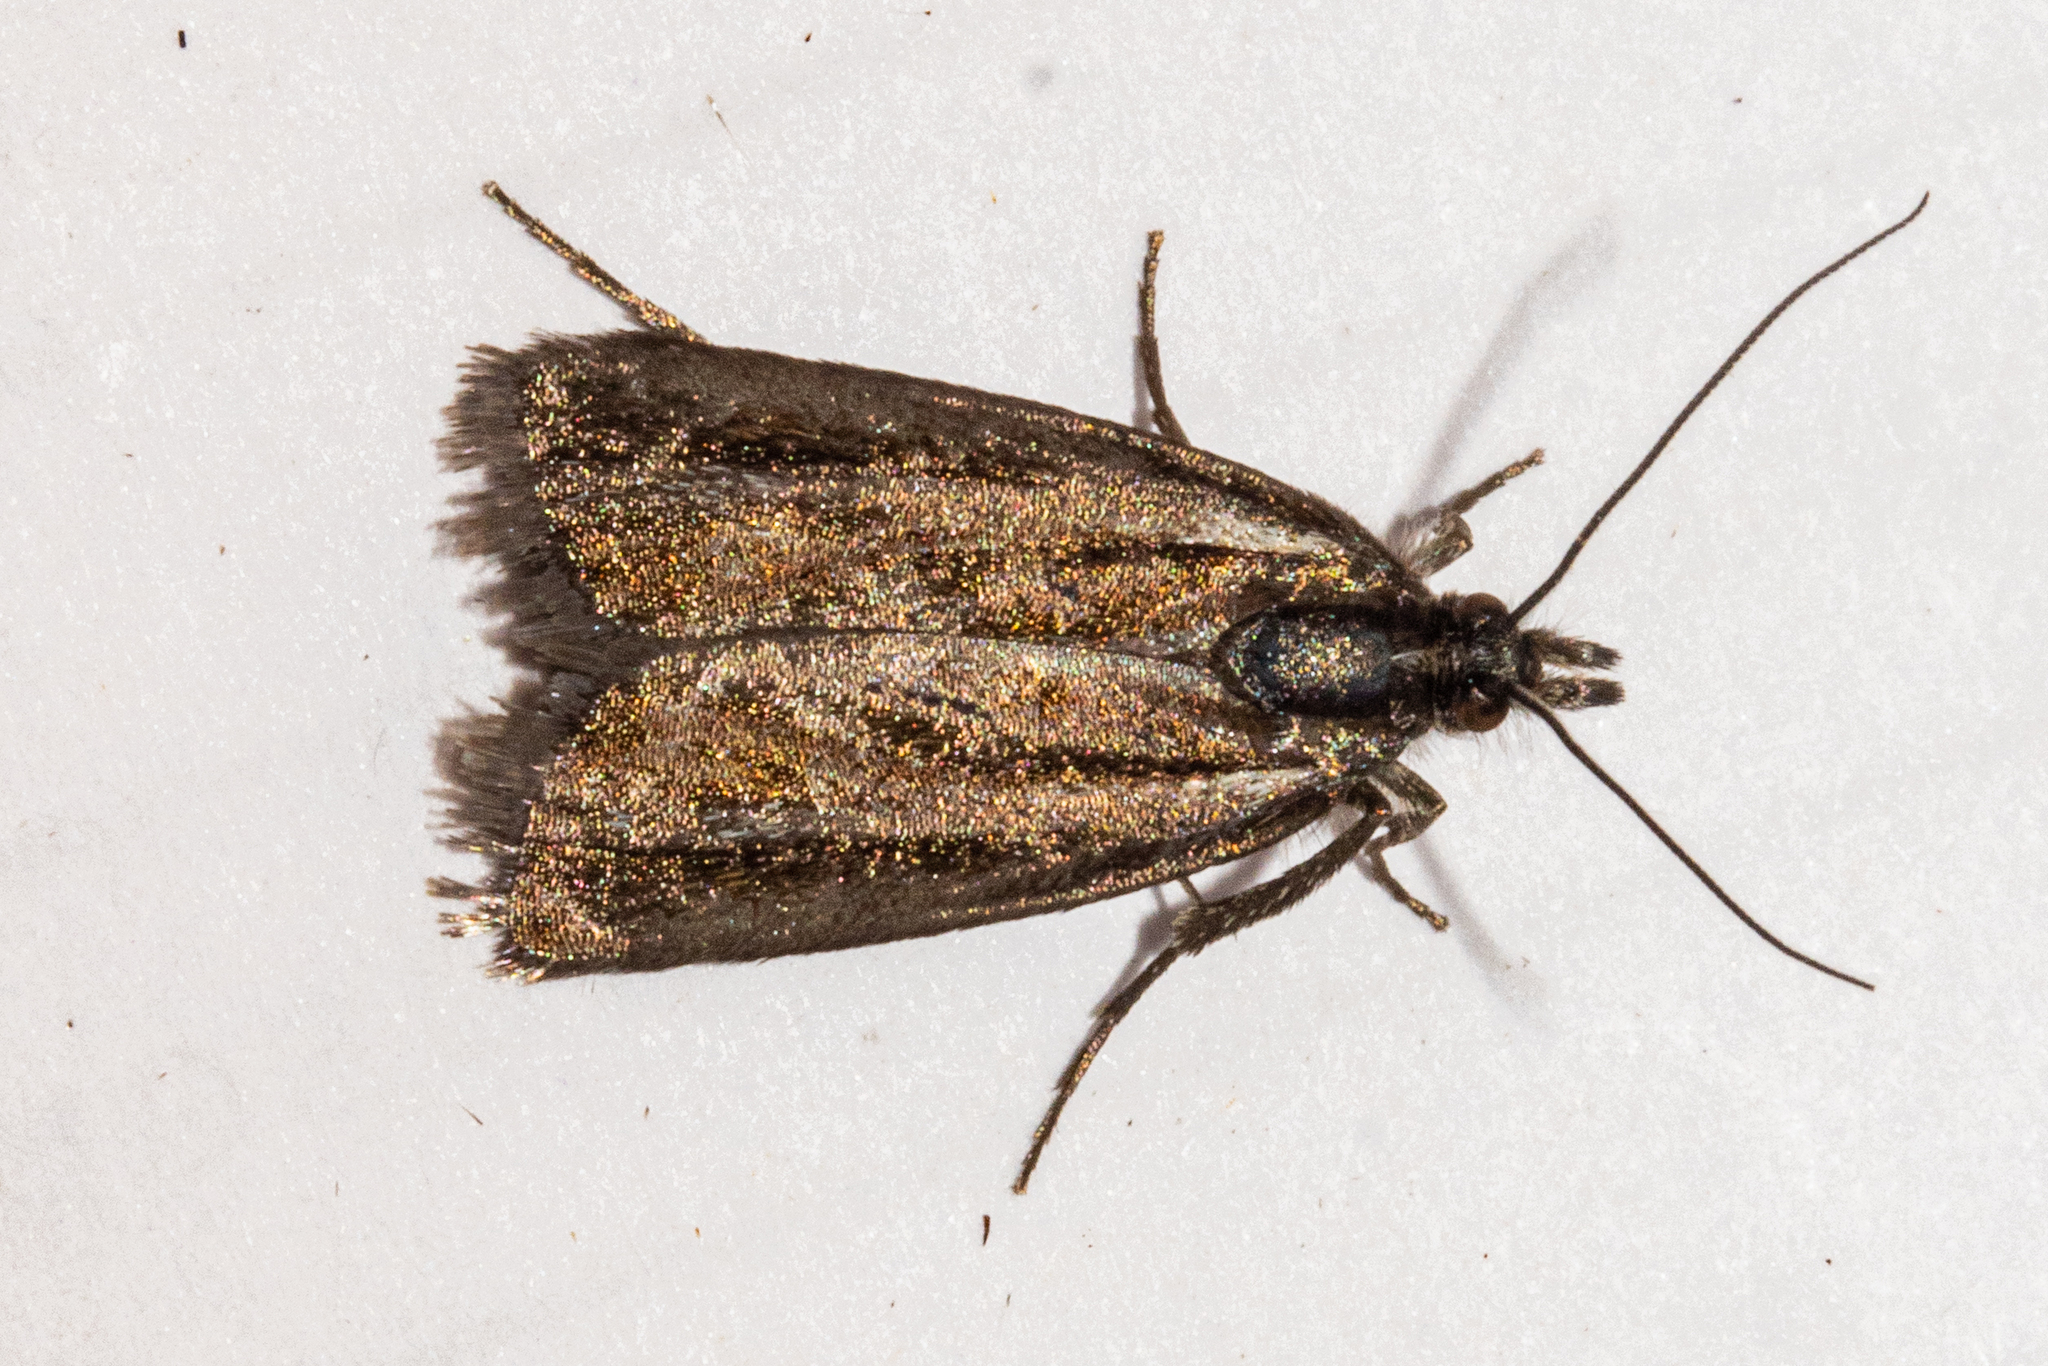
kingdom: Animalia
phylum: Arthropoda
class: Insecta
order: Lepidoptera
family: Crambidae
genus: Orocrambus
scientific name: Orocrambus mylites
